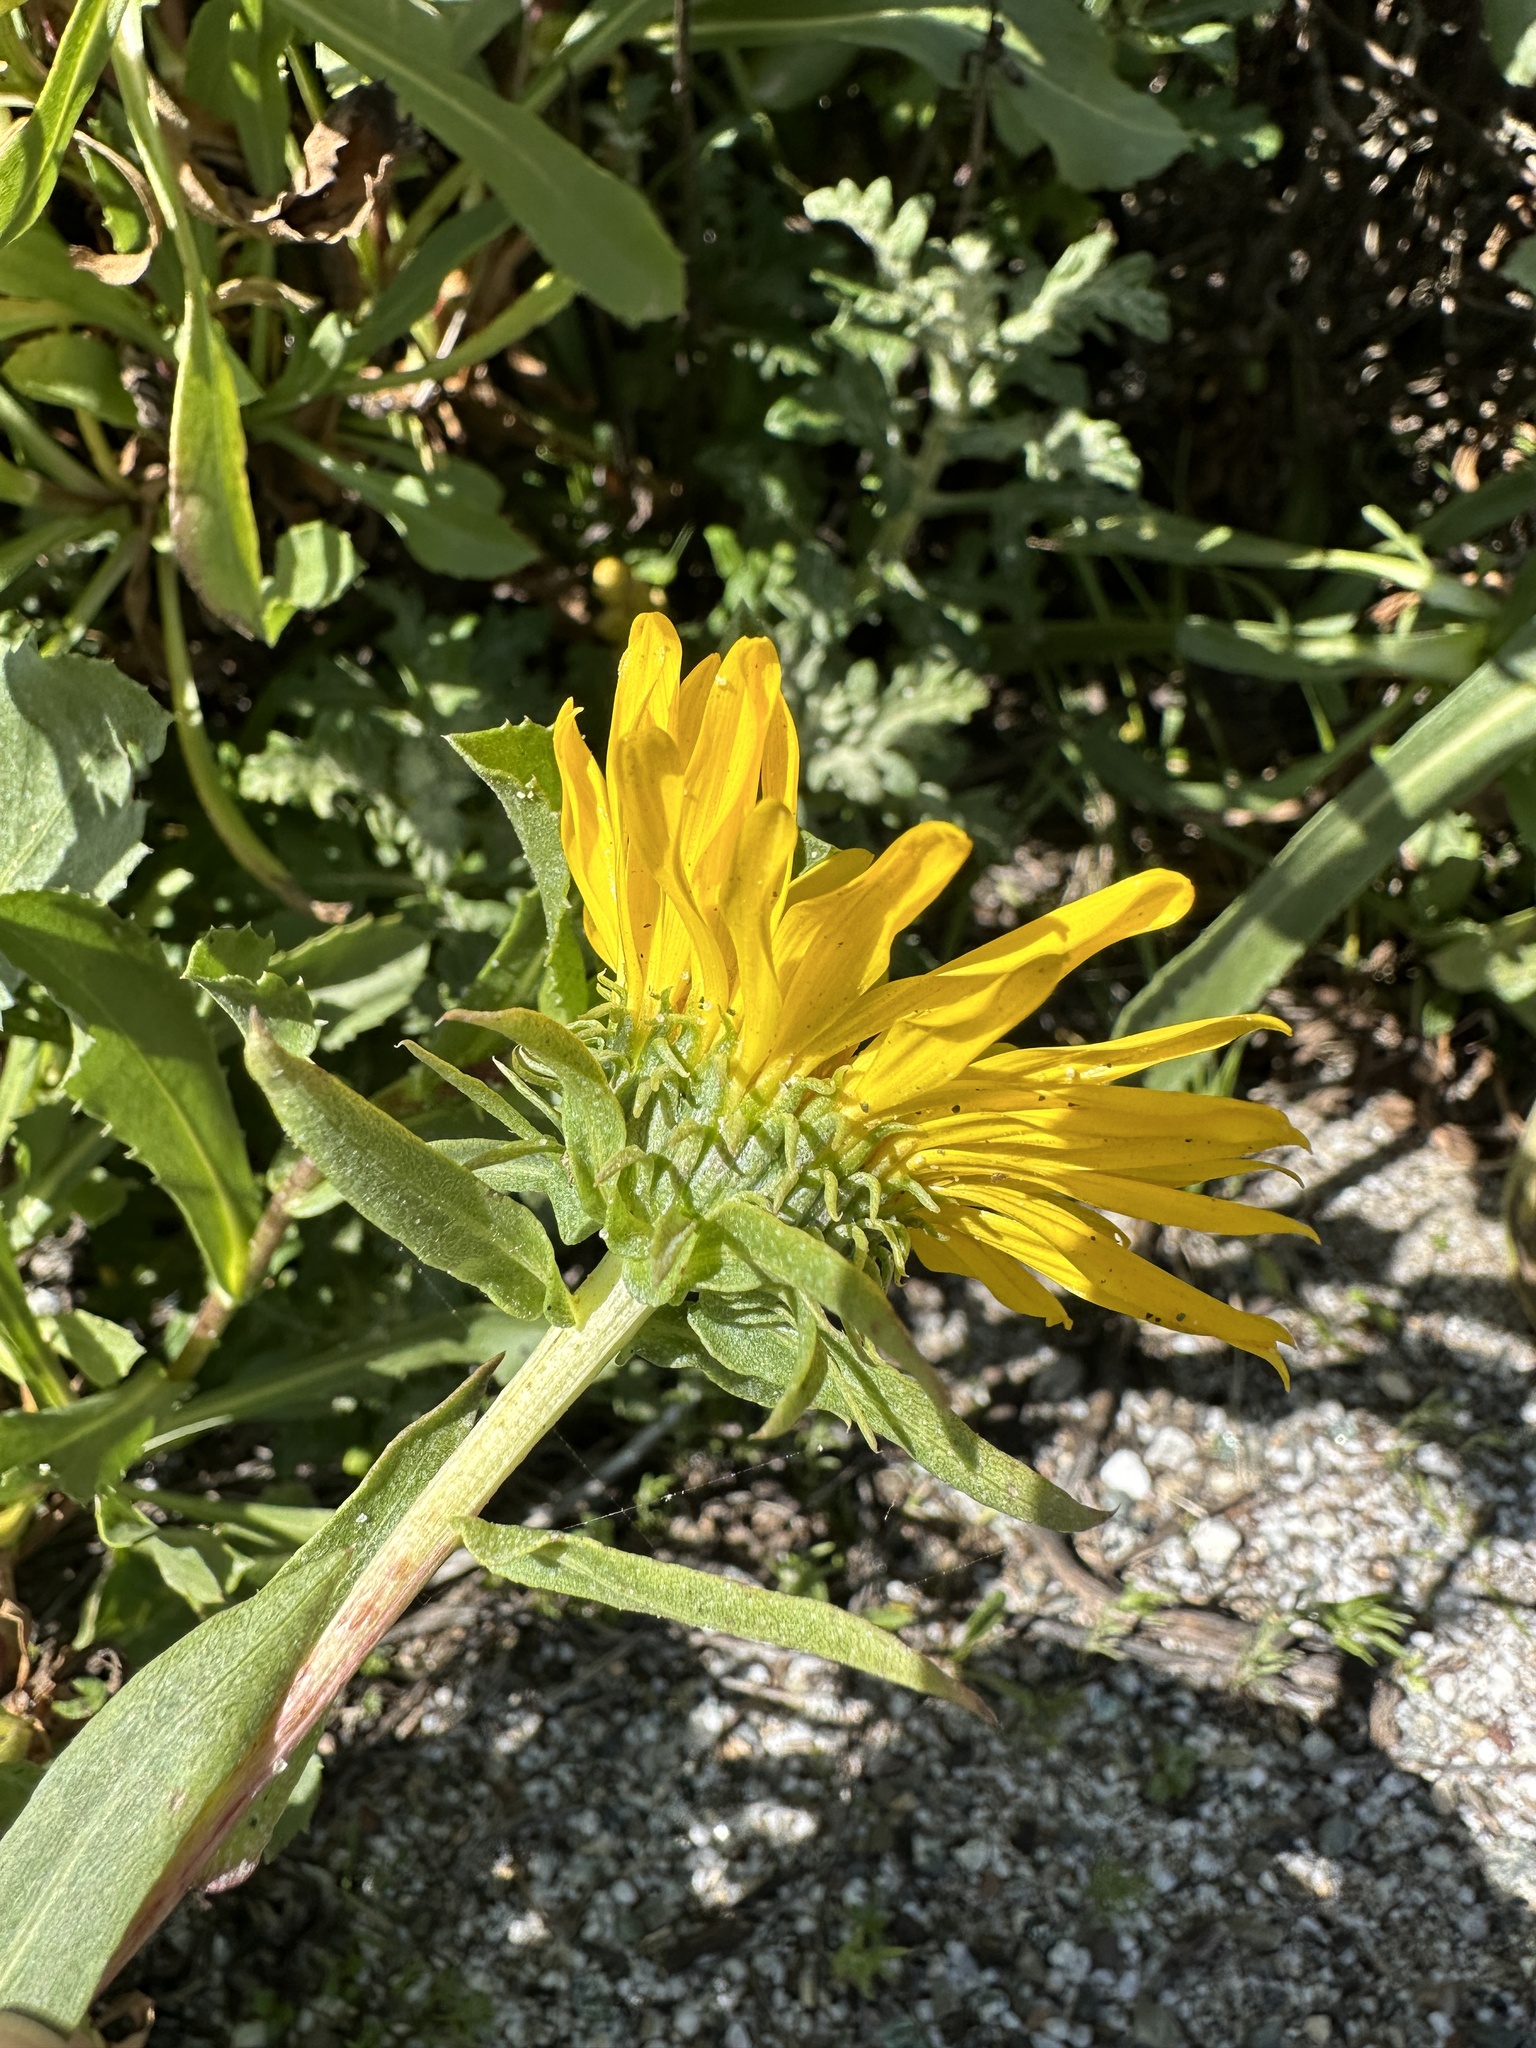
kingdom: Plantae
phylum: Tracheophyta
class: Magnoliopsida
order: Asterales
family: Asteraceae
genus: Grindelia
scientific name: Grindelia hirsutula
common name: Hairy gumweed
